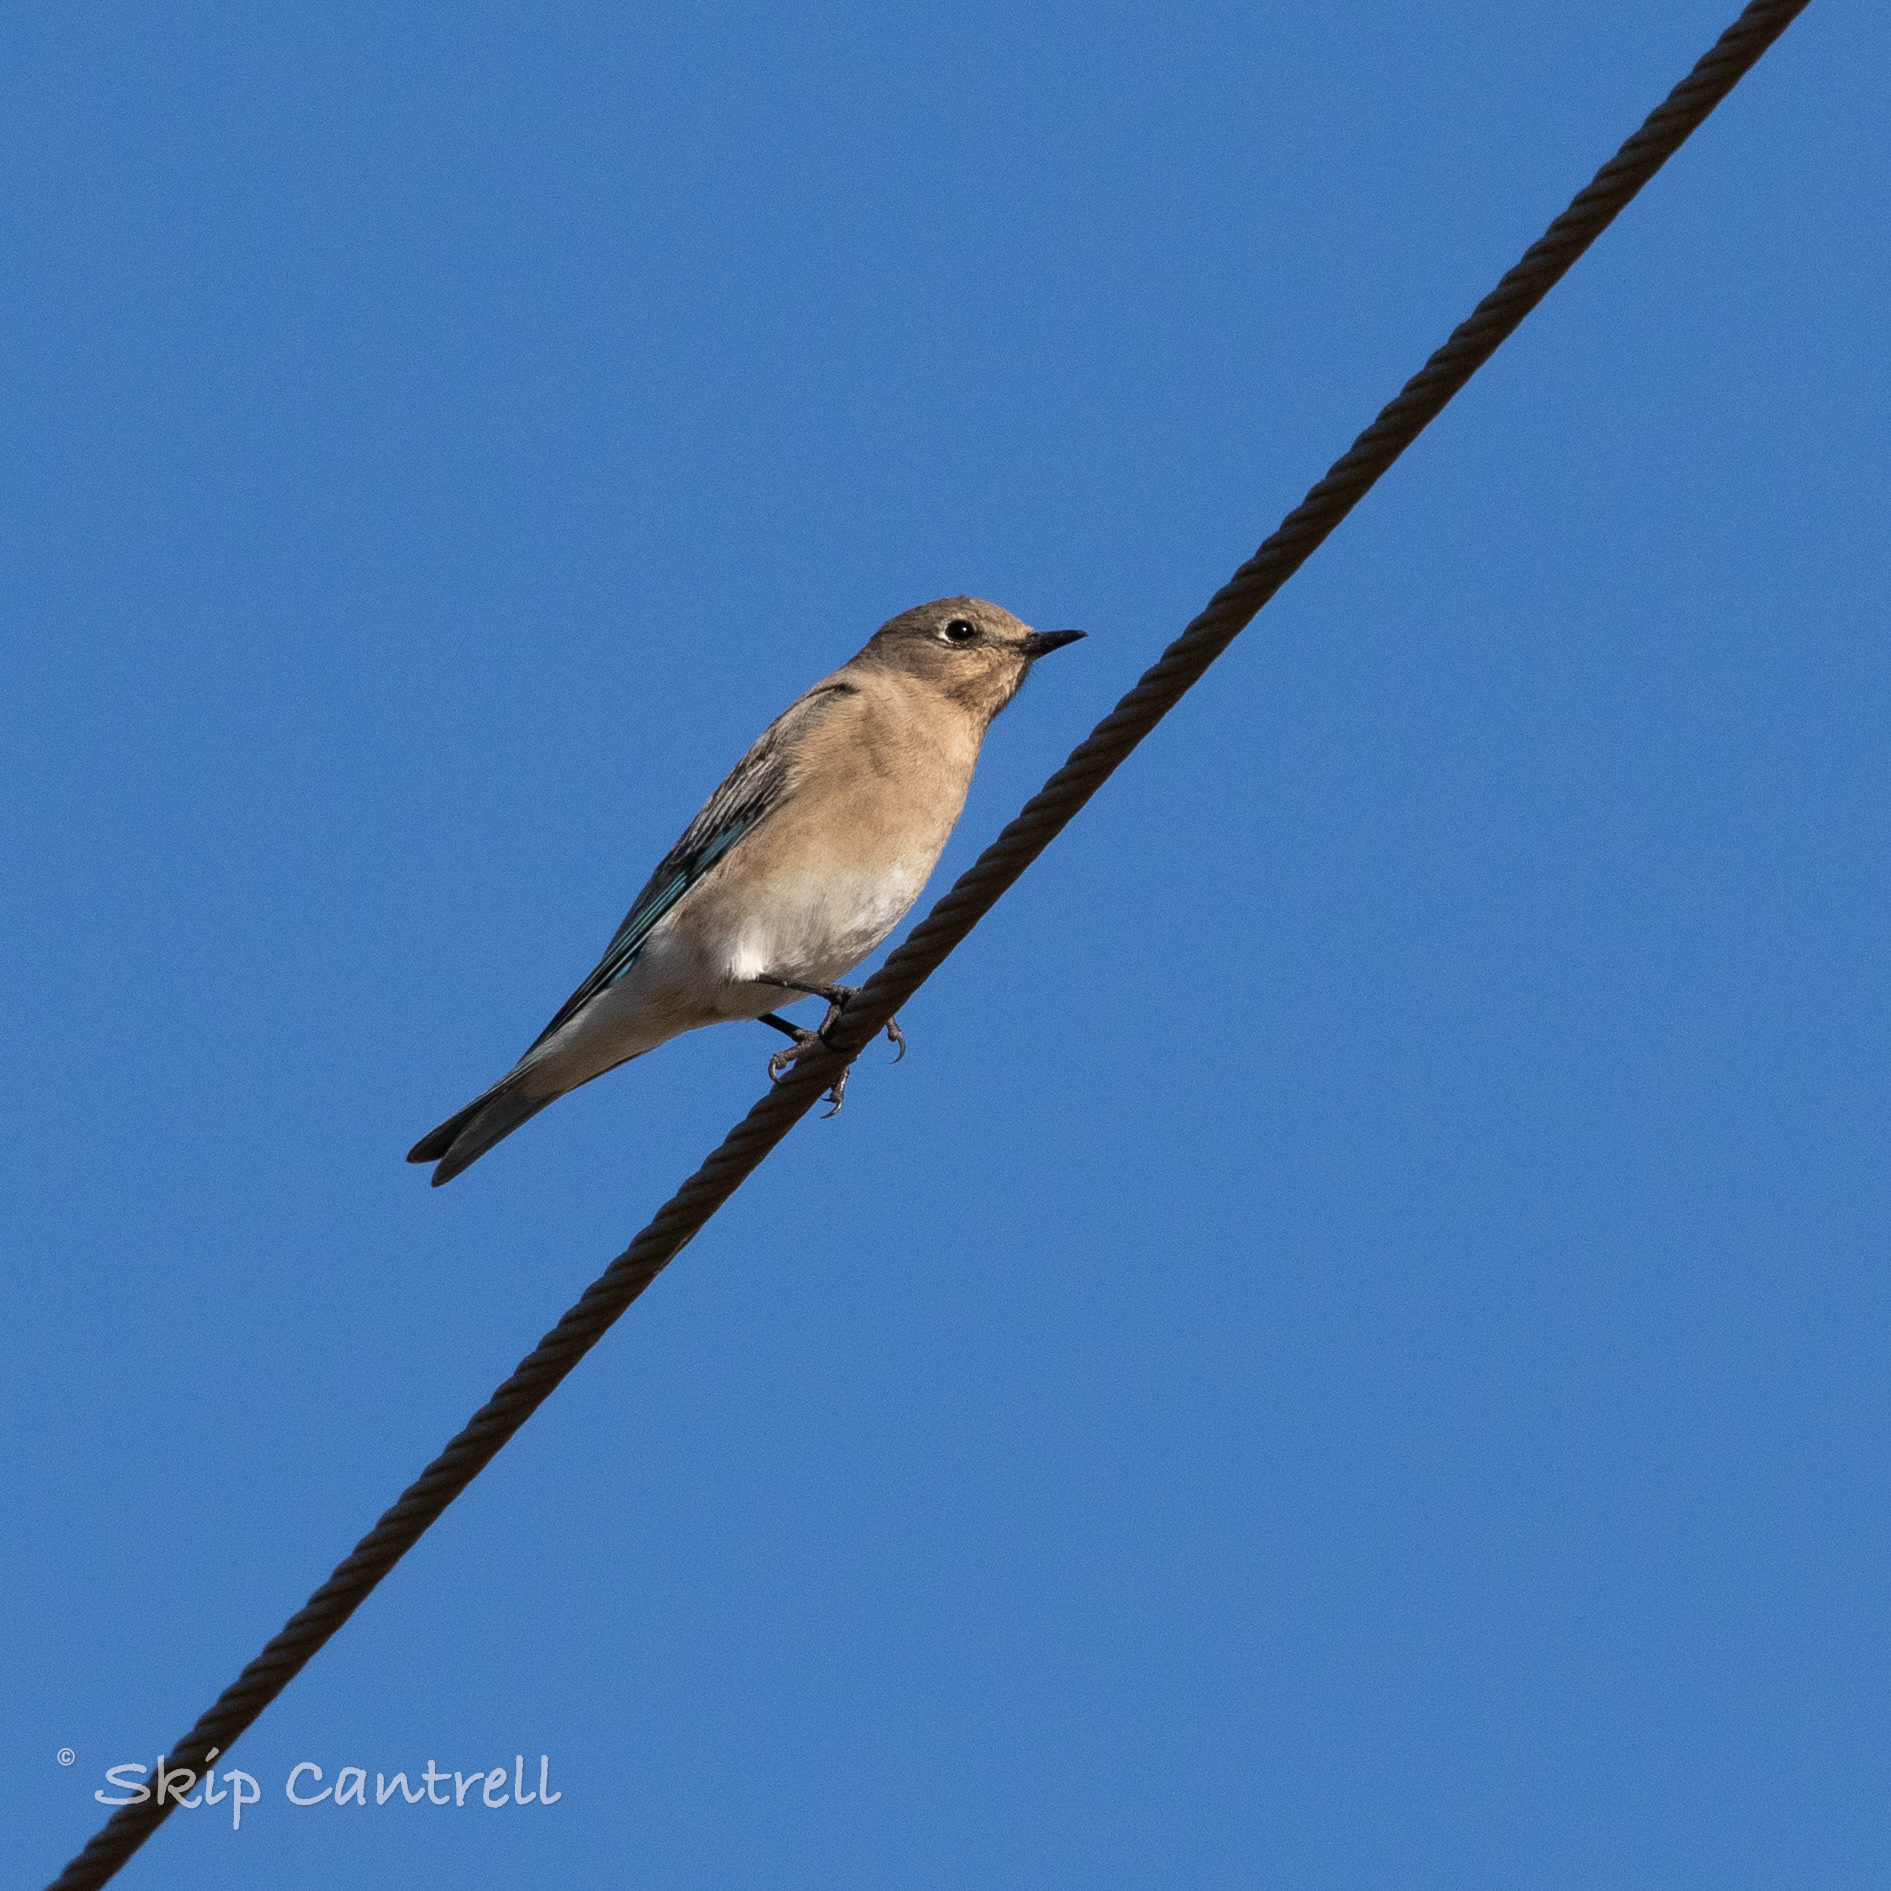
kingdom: Animalia
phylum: Chordata
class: Aves
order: Passeriformes
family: Turdidae
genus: Sialia
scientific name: Sialia currucoides
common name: Mountain bluebird
